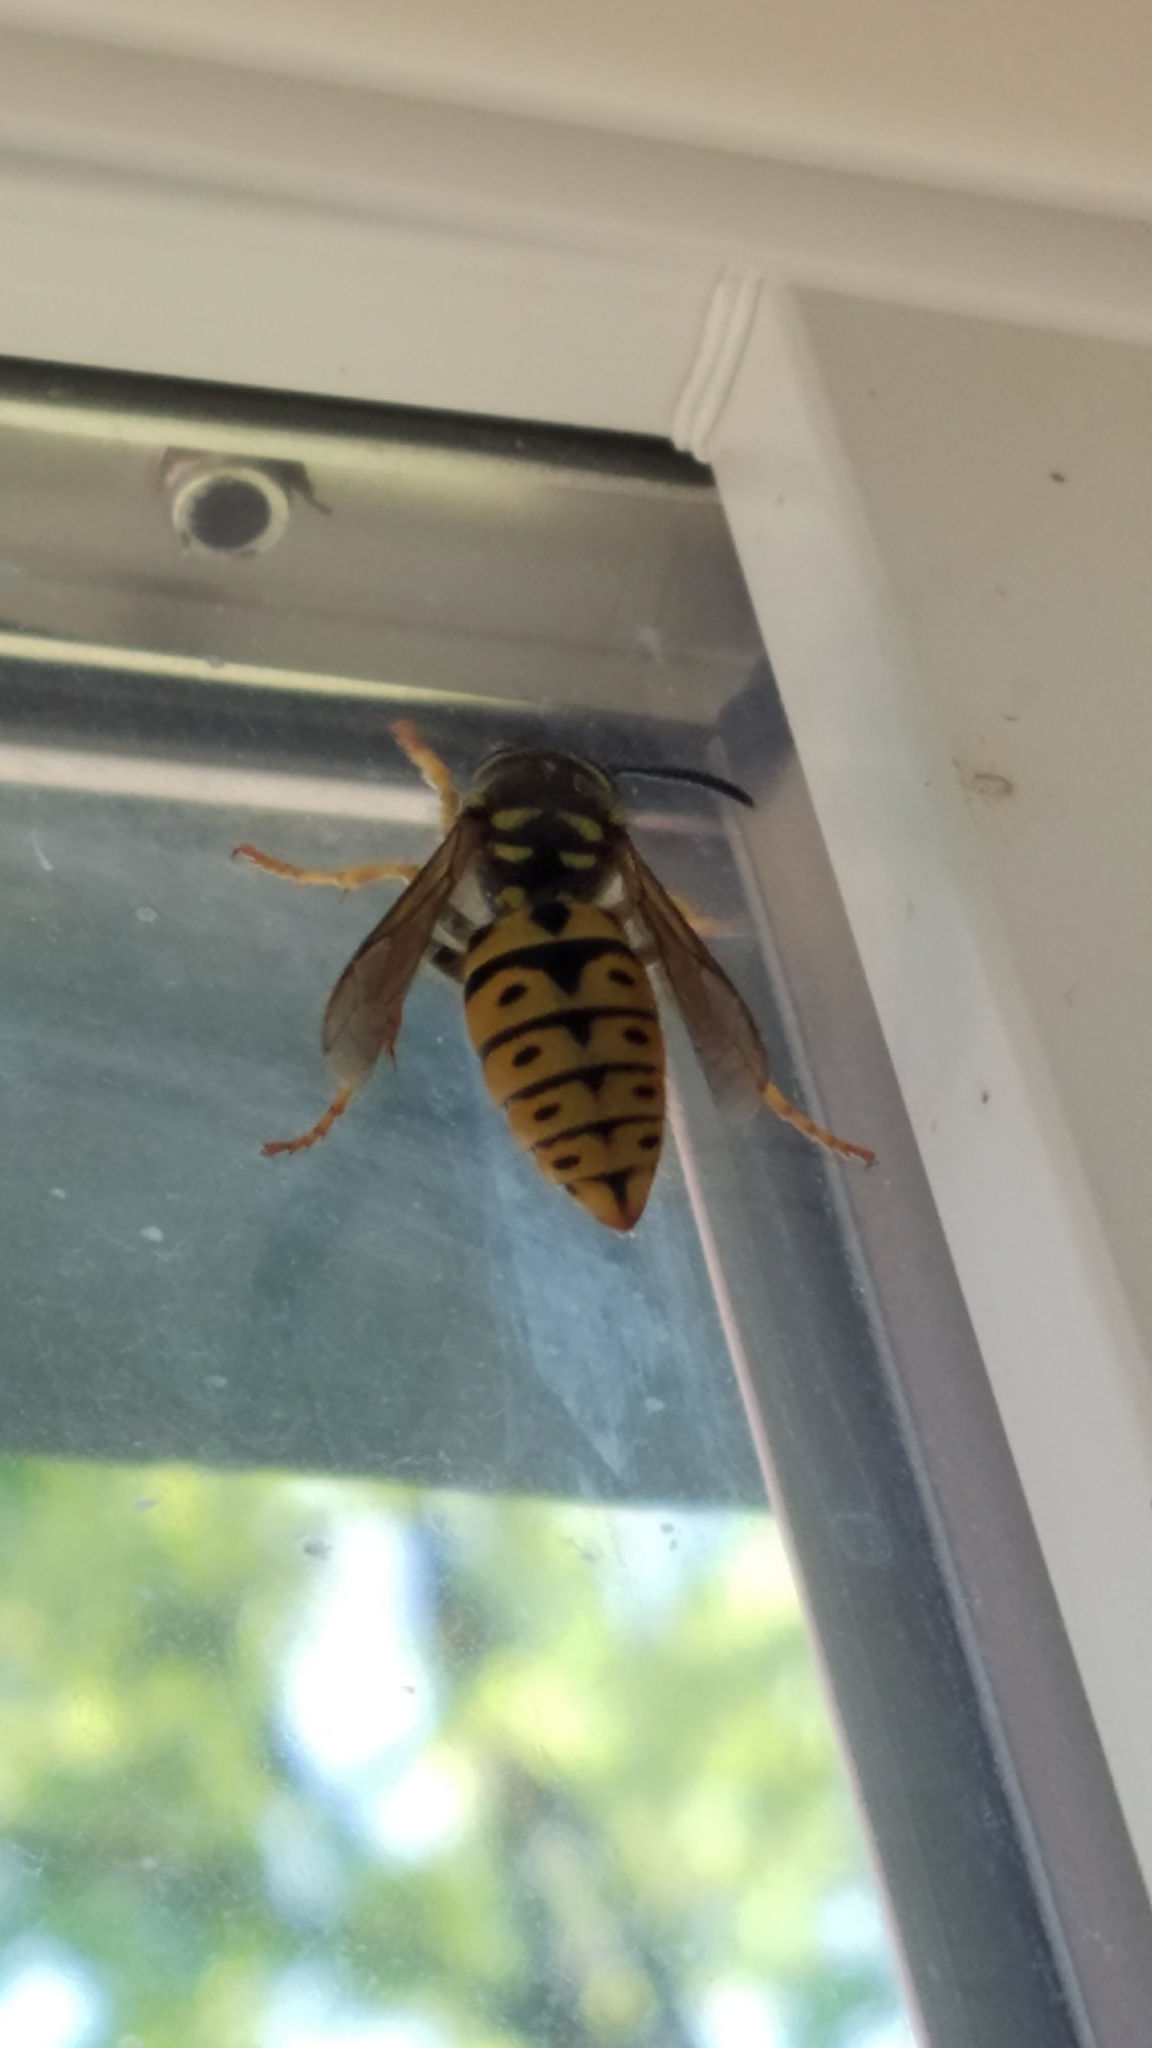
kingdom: Animalia
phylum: Arthropoda
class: Insecta
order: Hymenoptera
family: Vespidae
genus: Vespula
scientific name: Vespula pensylvanica
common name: Western yellowjacket
